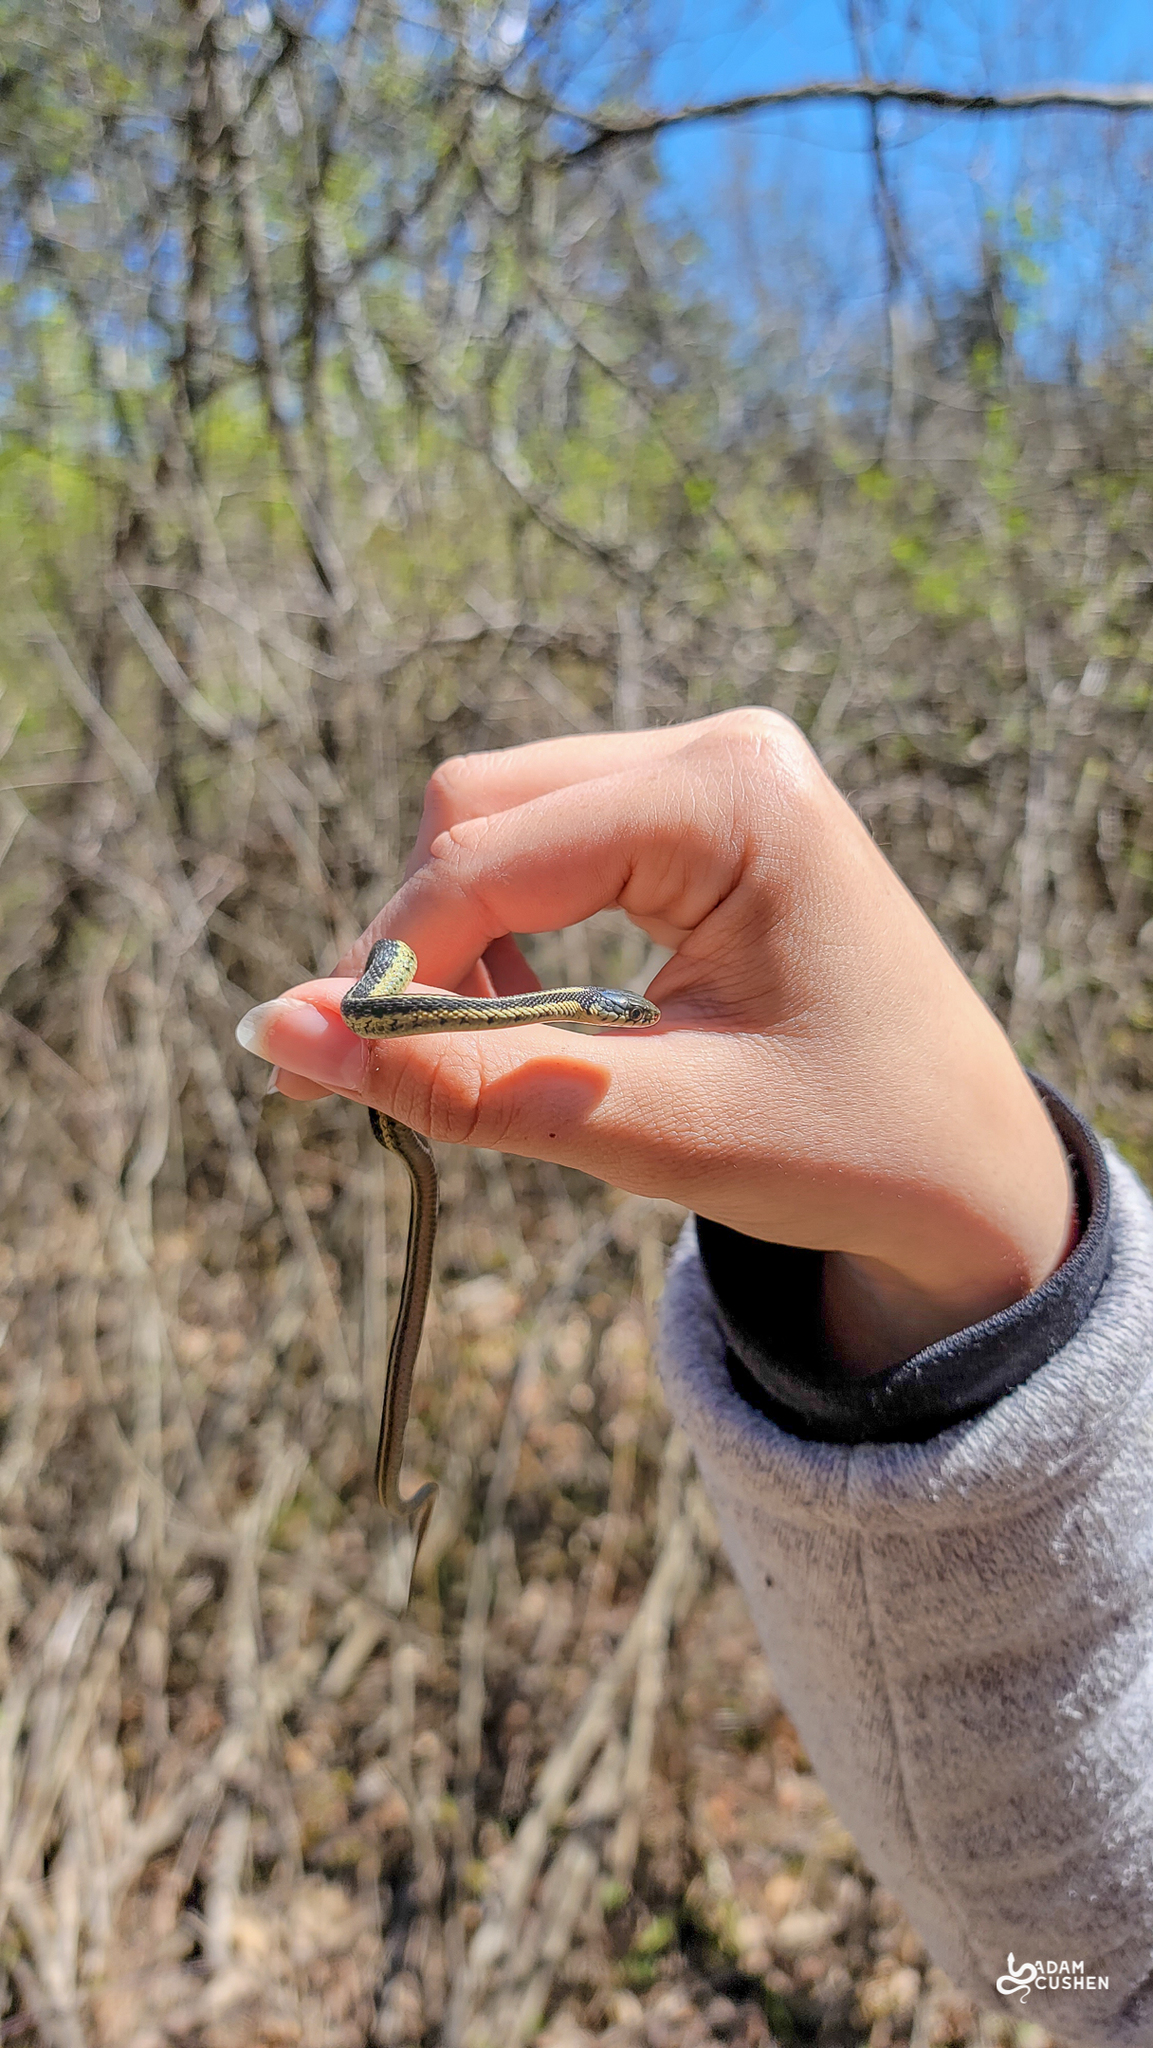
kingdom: Animalia
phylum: Chordata
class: Squamata
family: Colubridae
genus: Thamnophis
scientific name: Thamnophis sirtalis
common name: Common garter snake
